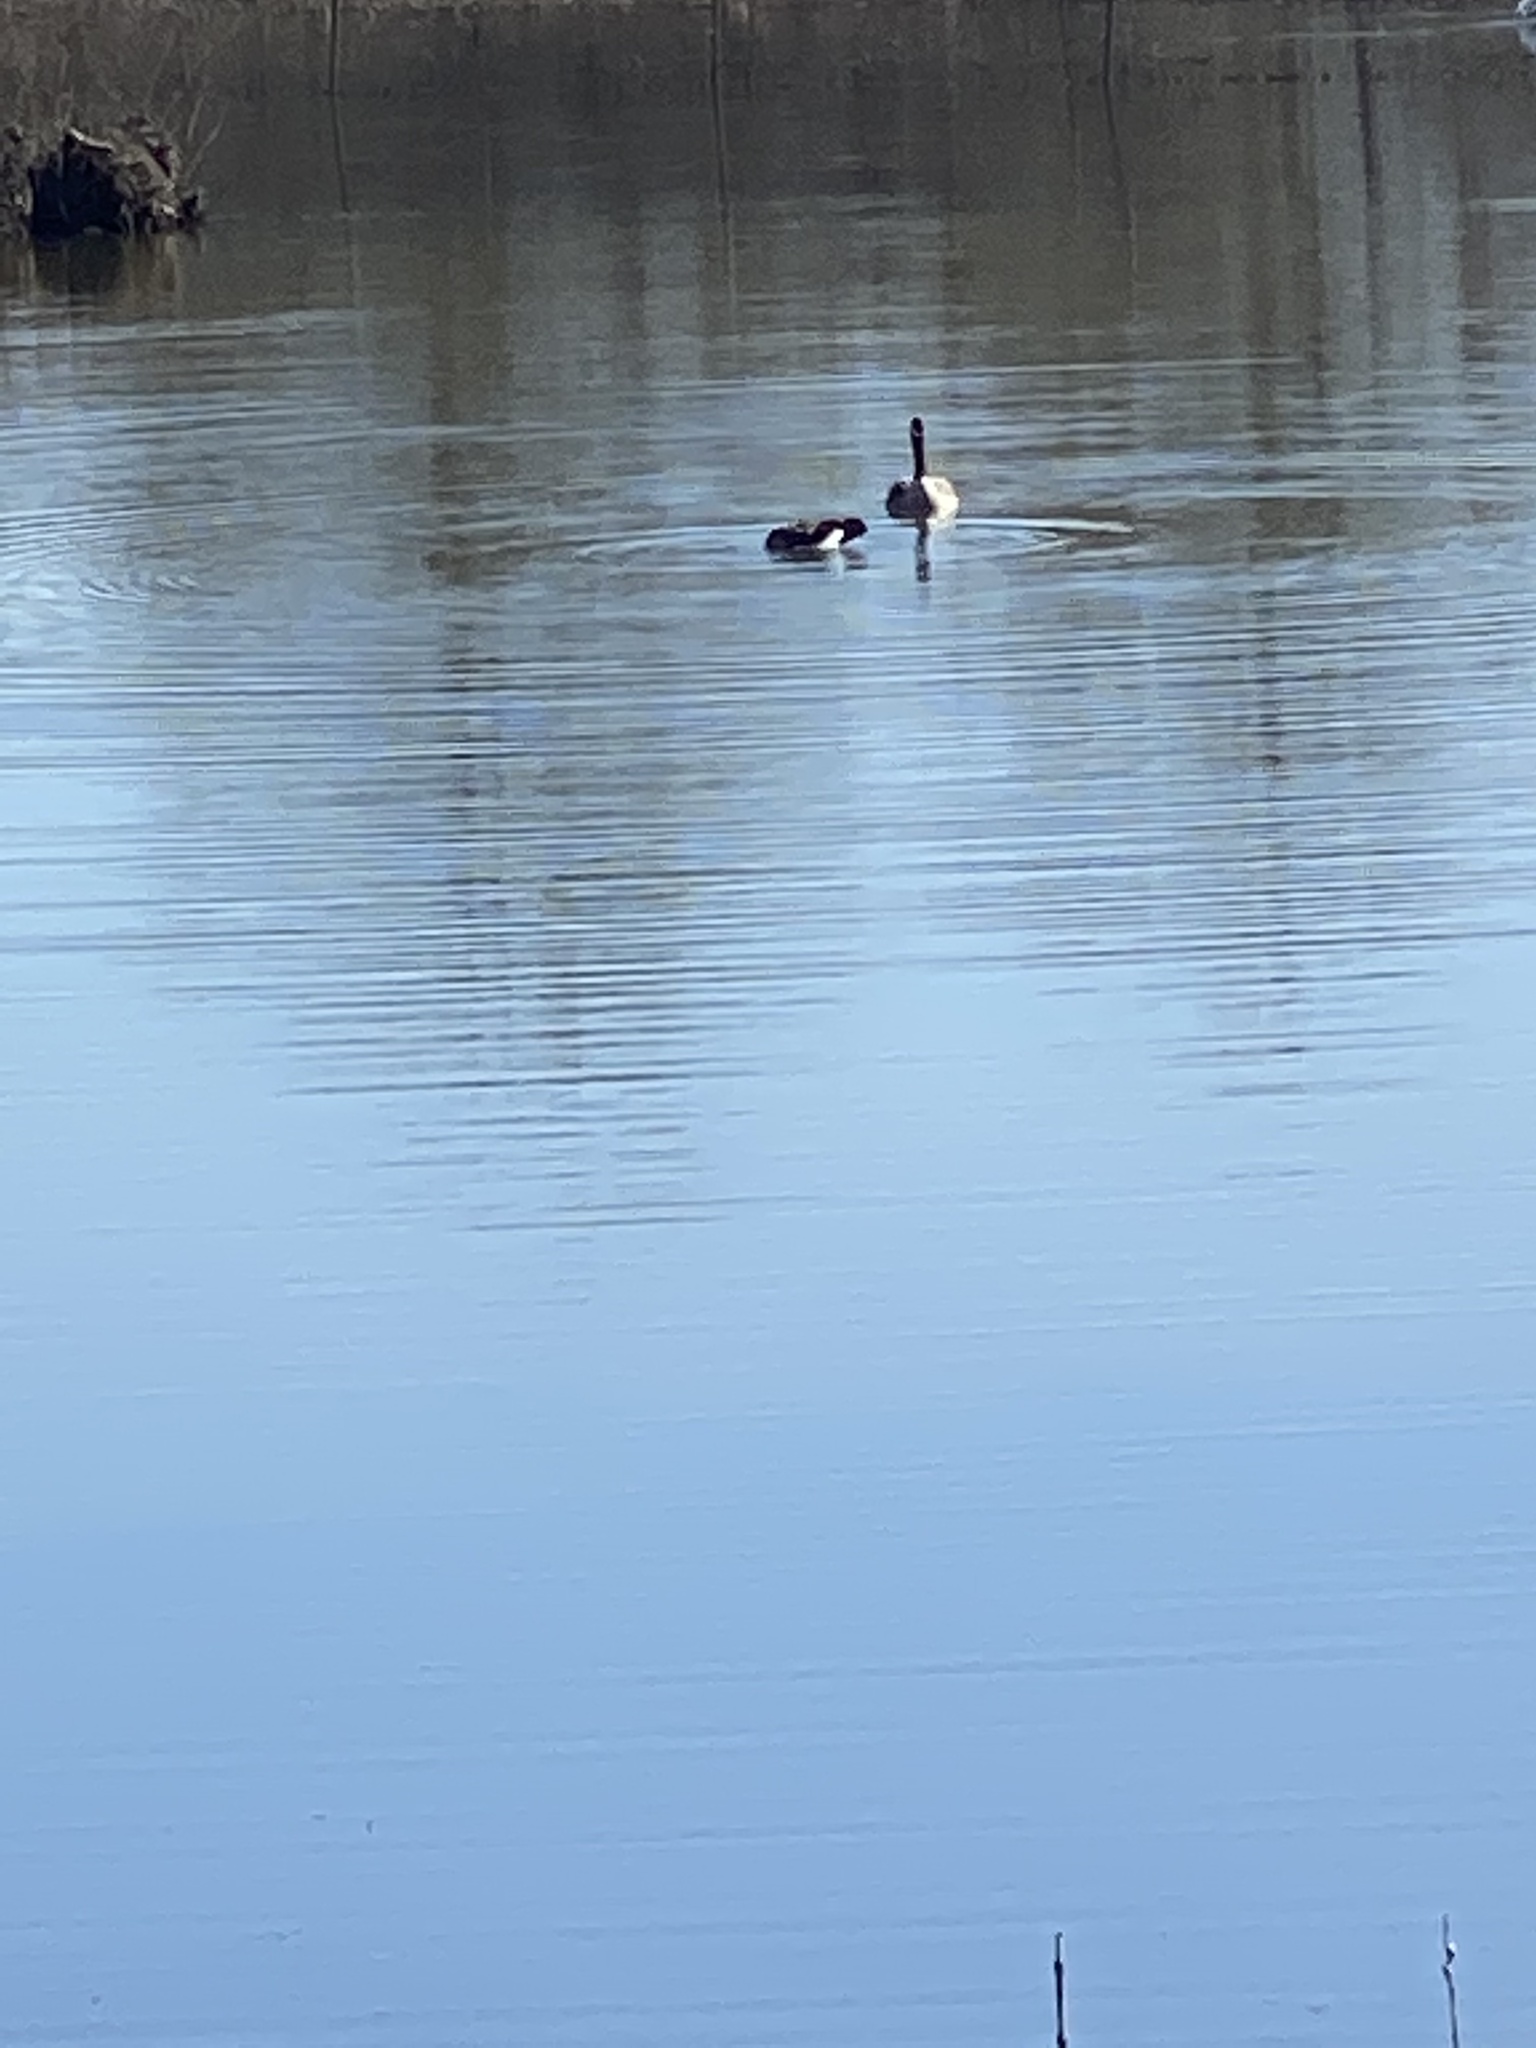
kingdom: Animalia
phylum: Chordata
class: Aves
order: Anseriformes
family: Anatidae
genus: Branta
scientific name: Branta canadensis
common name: Canada goose
